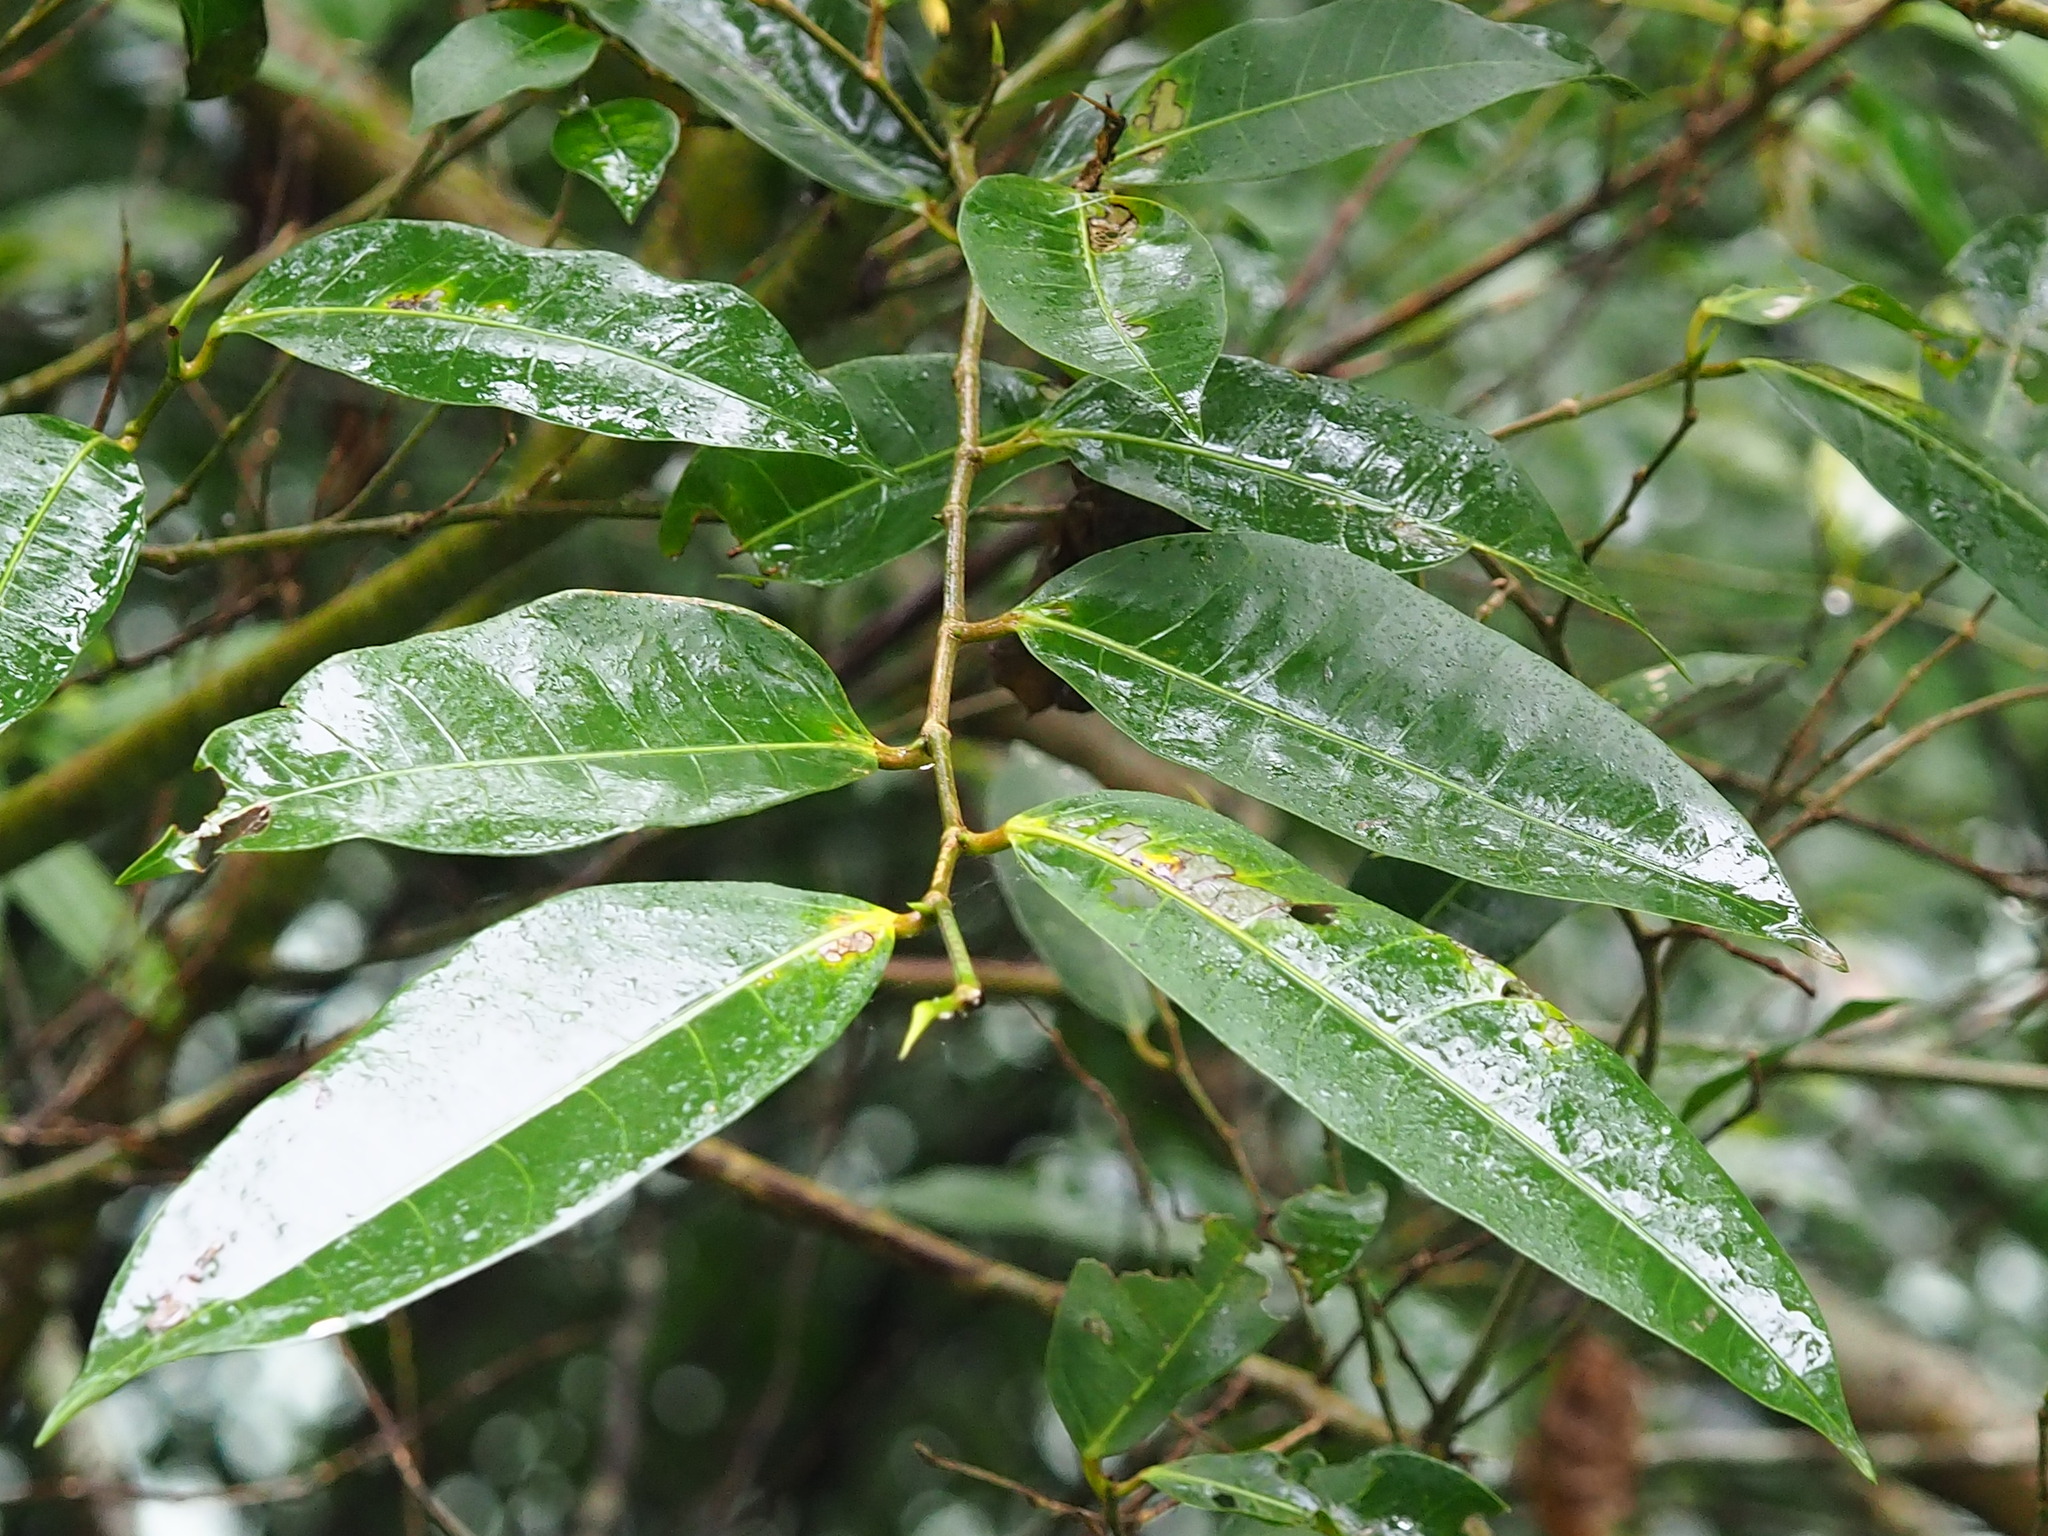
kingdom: Plantae
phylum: Tracheophyta
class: Magnoliopsida
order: Rosales
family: Moraceae
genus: Ficus
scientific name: Ficus virgata
